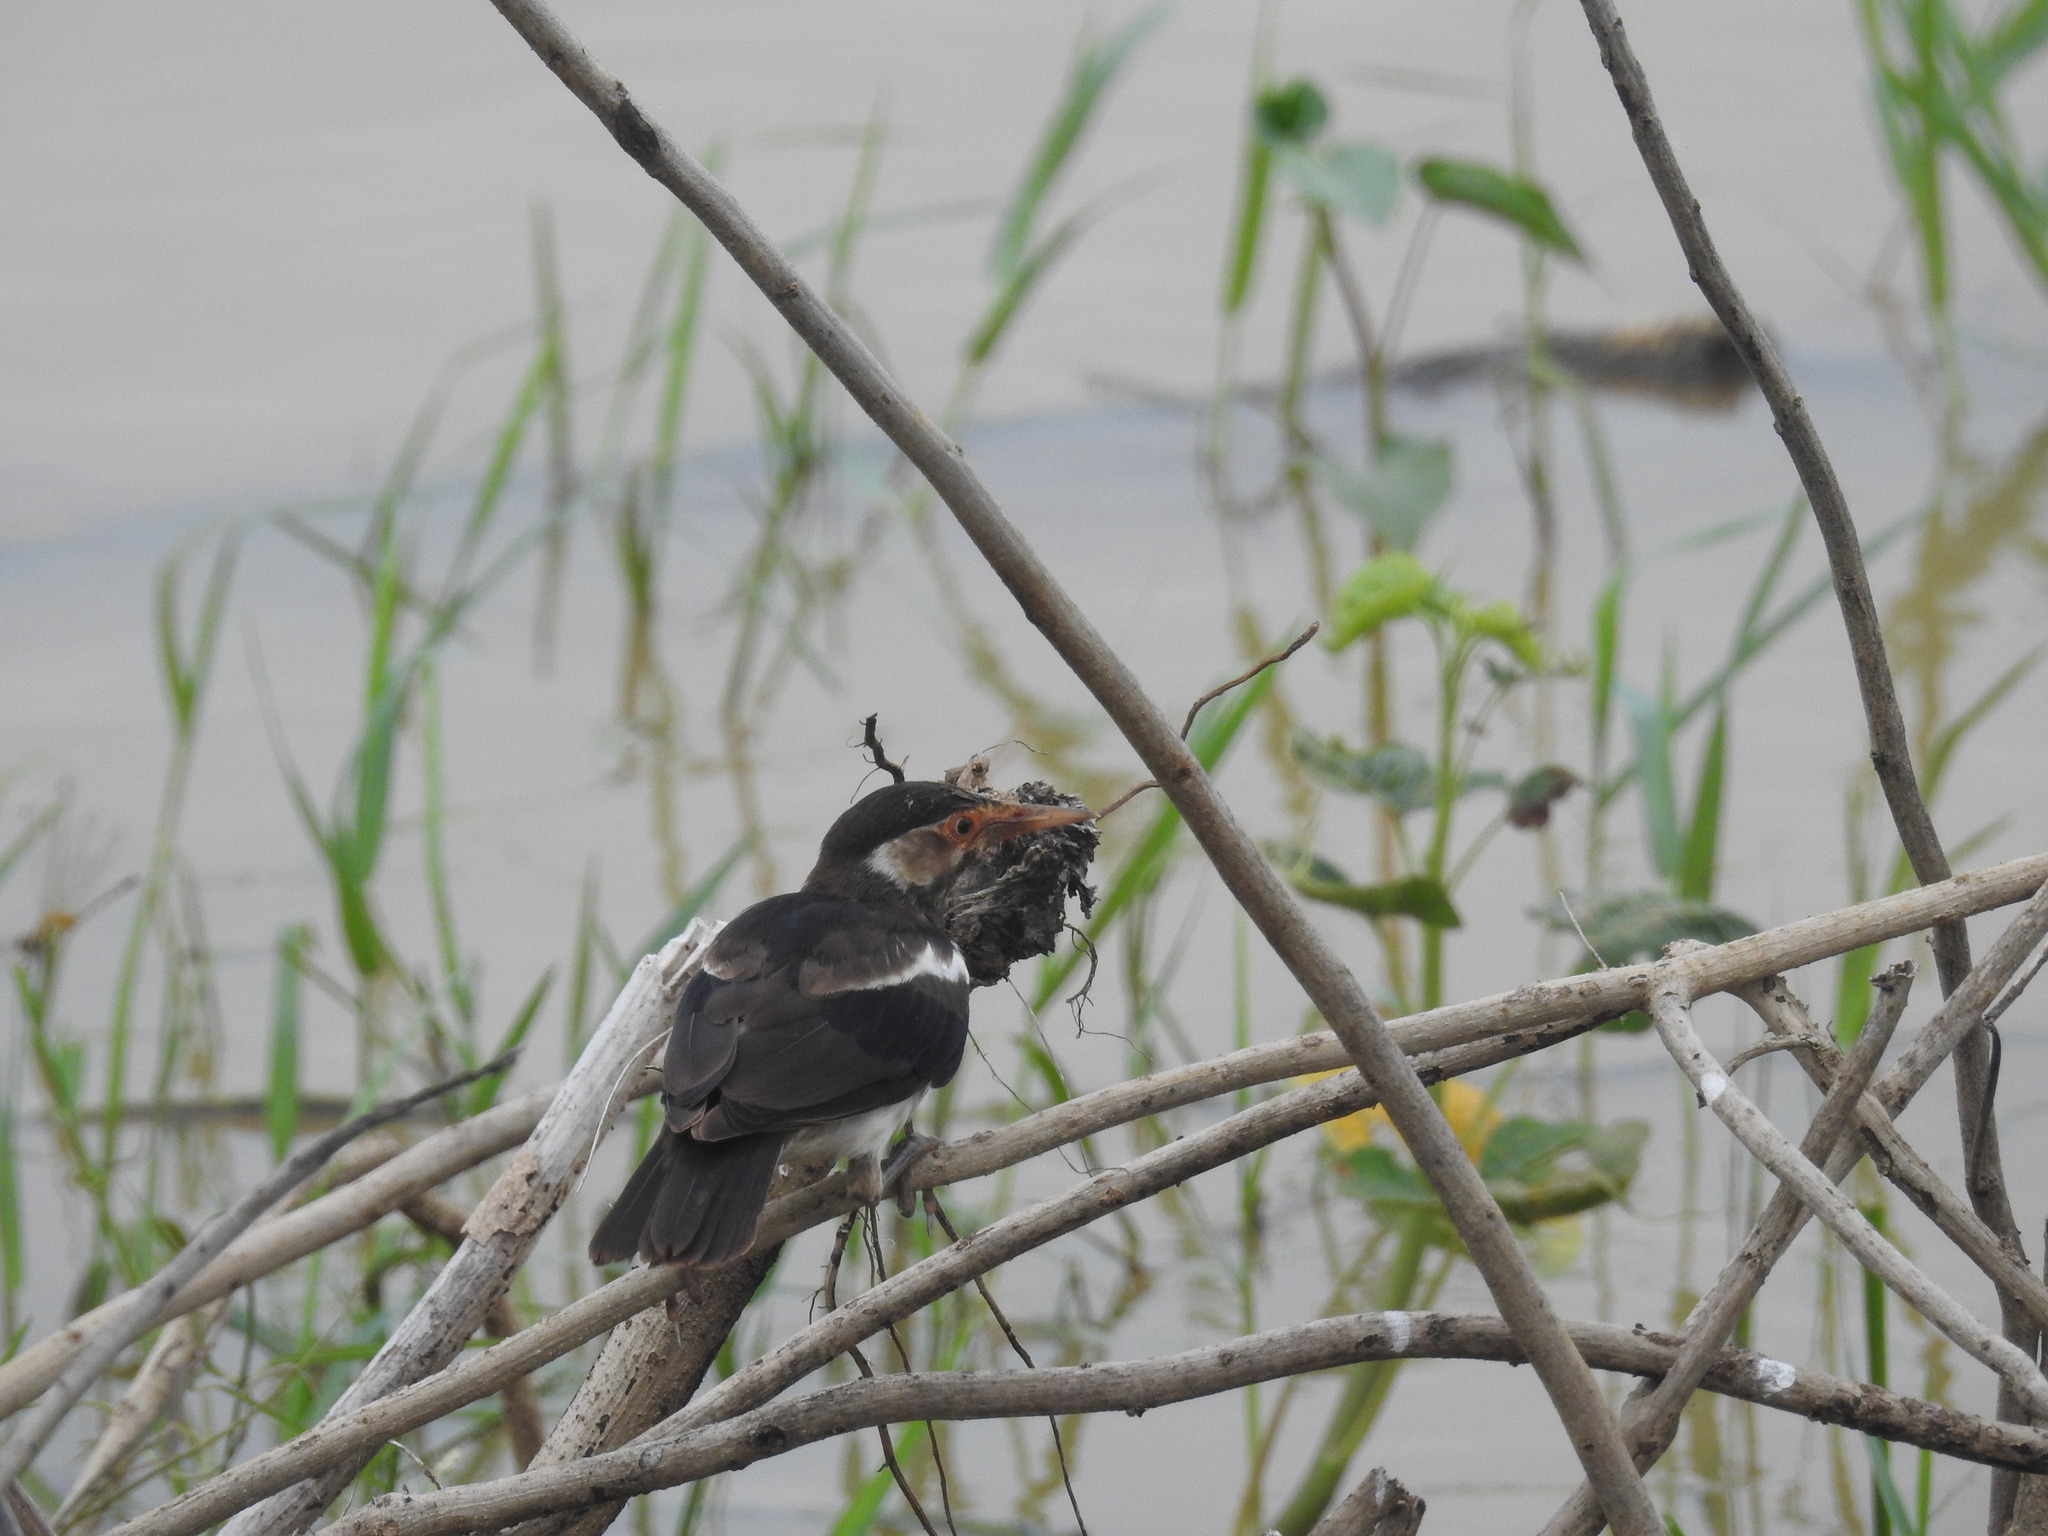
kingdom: Animalia
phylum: Chordata
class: Aves
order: Passeriformes
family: Sturnidae
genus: Gracupica
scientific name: Gracupica contra
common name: Pied myna
